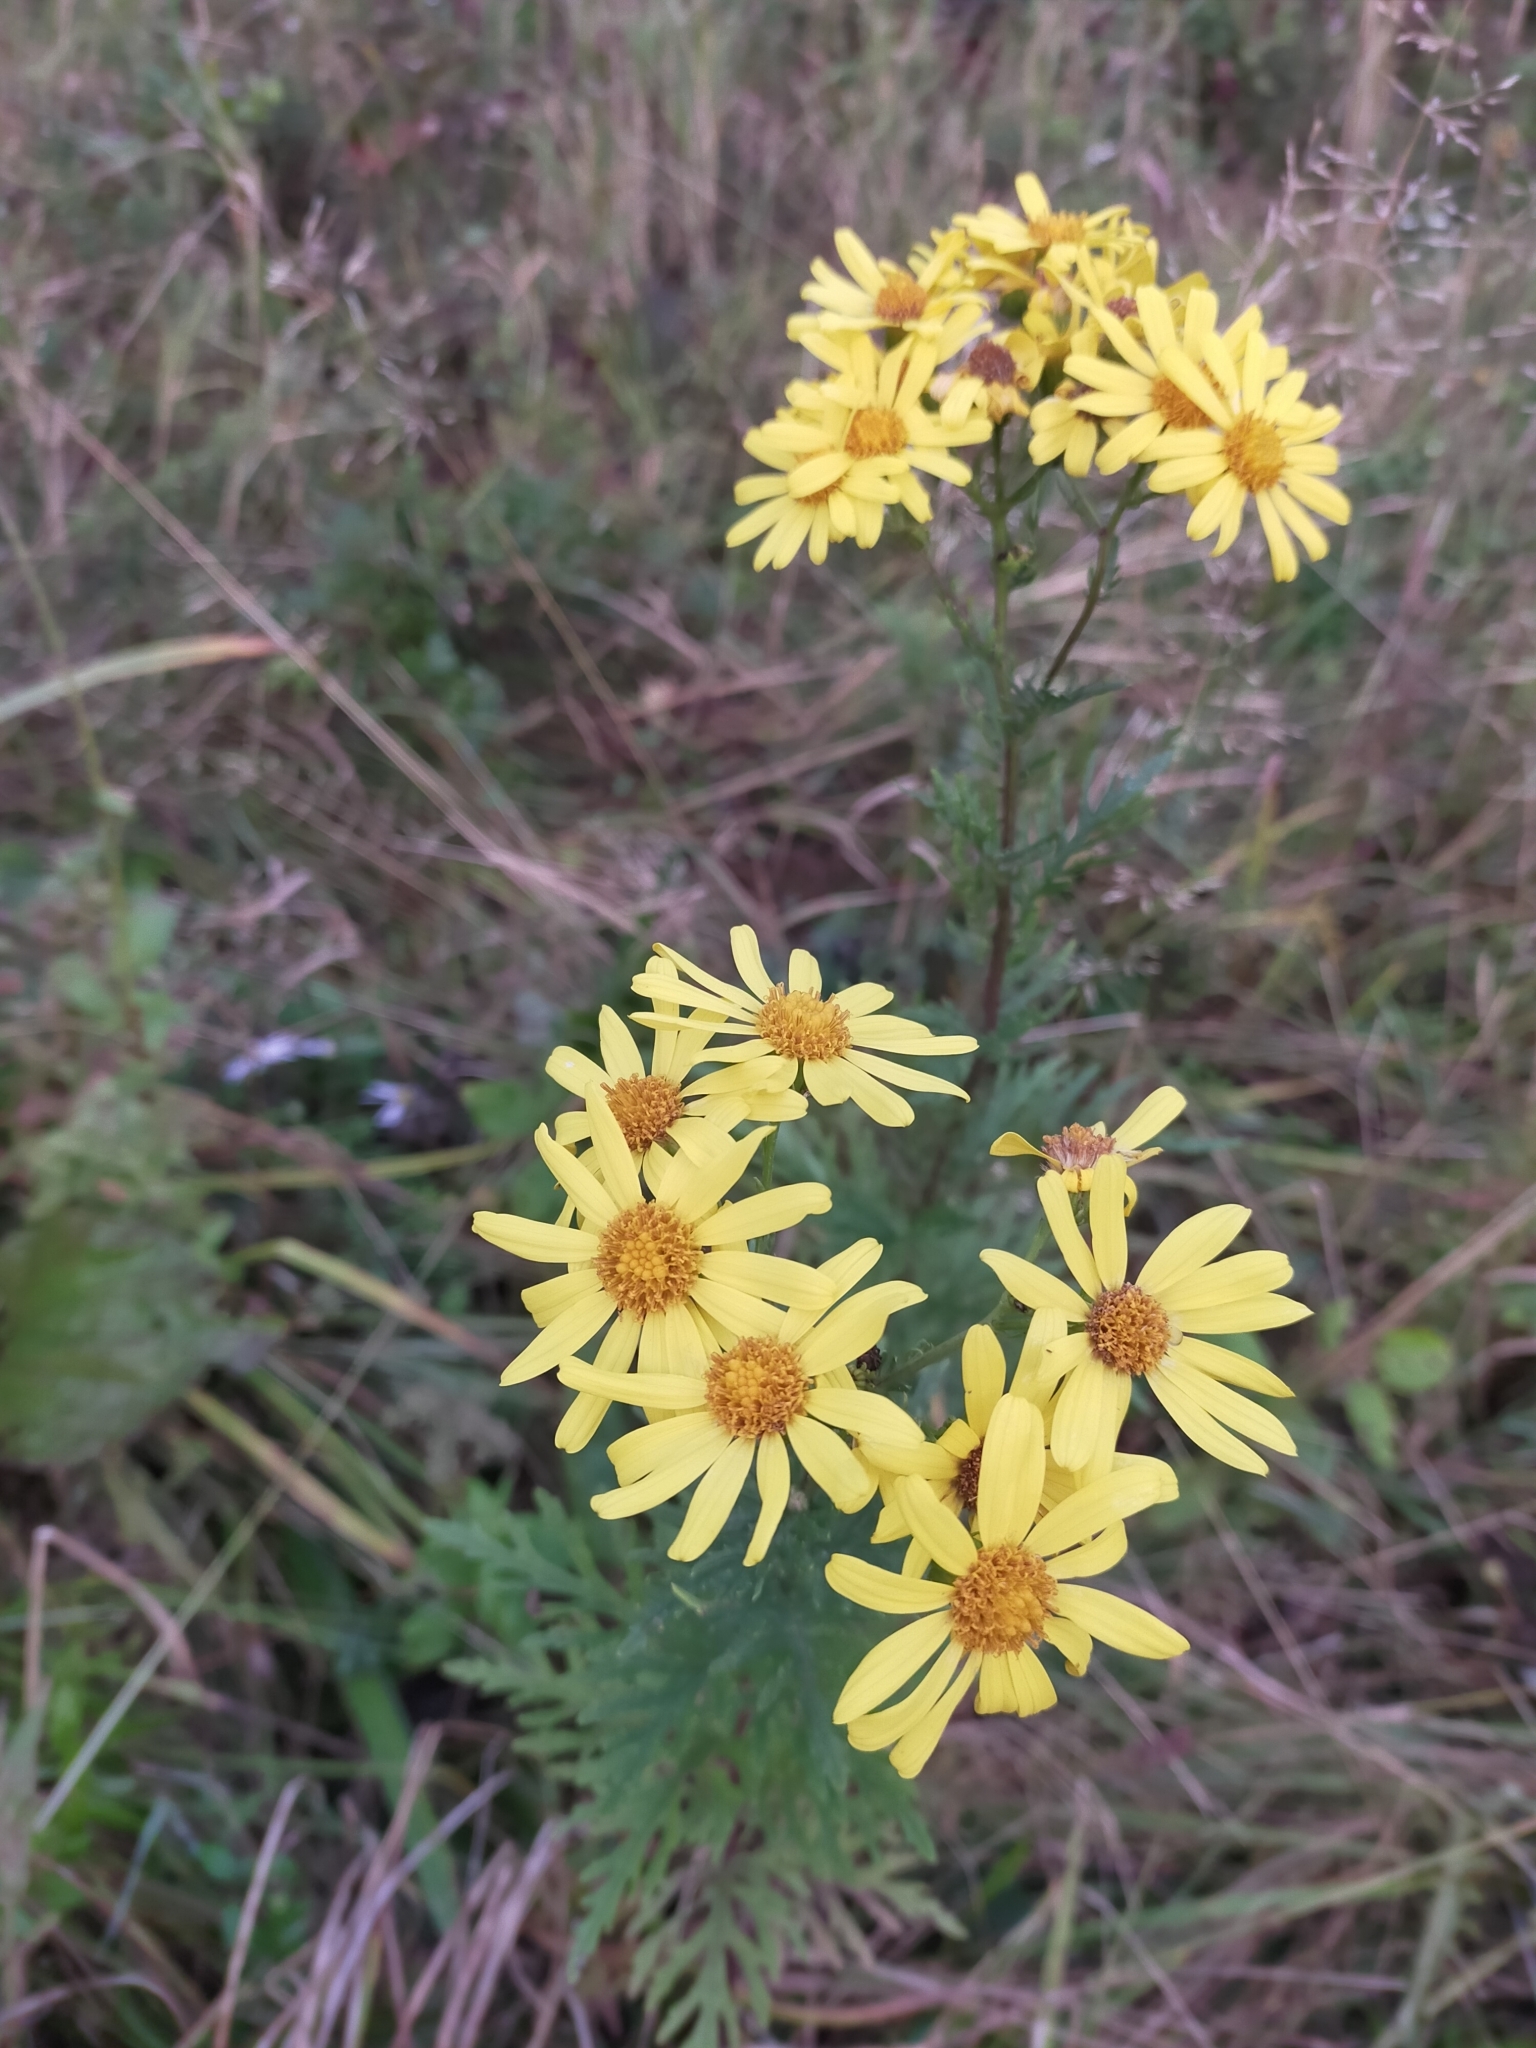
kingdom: Plantae
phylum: Tracheophyta
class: Magnoliopsida
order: Asterales
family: Asteraceae
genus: Jacobaea
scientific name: Jacobaea erucifolia
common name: Hoary ragwort
